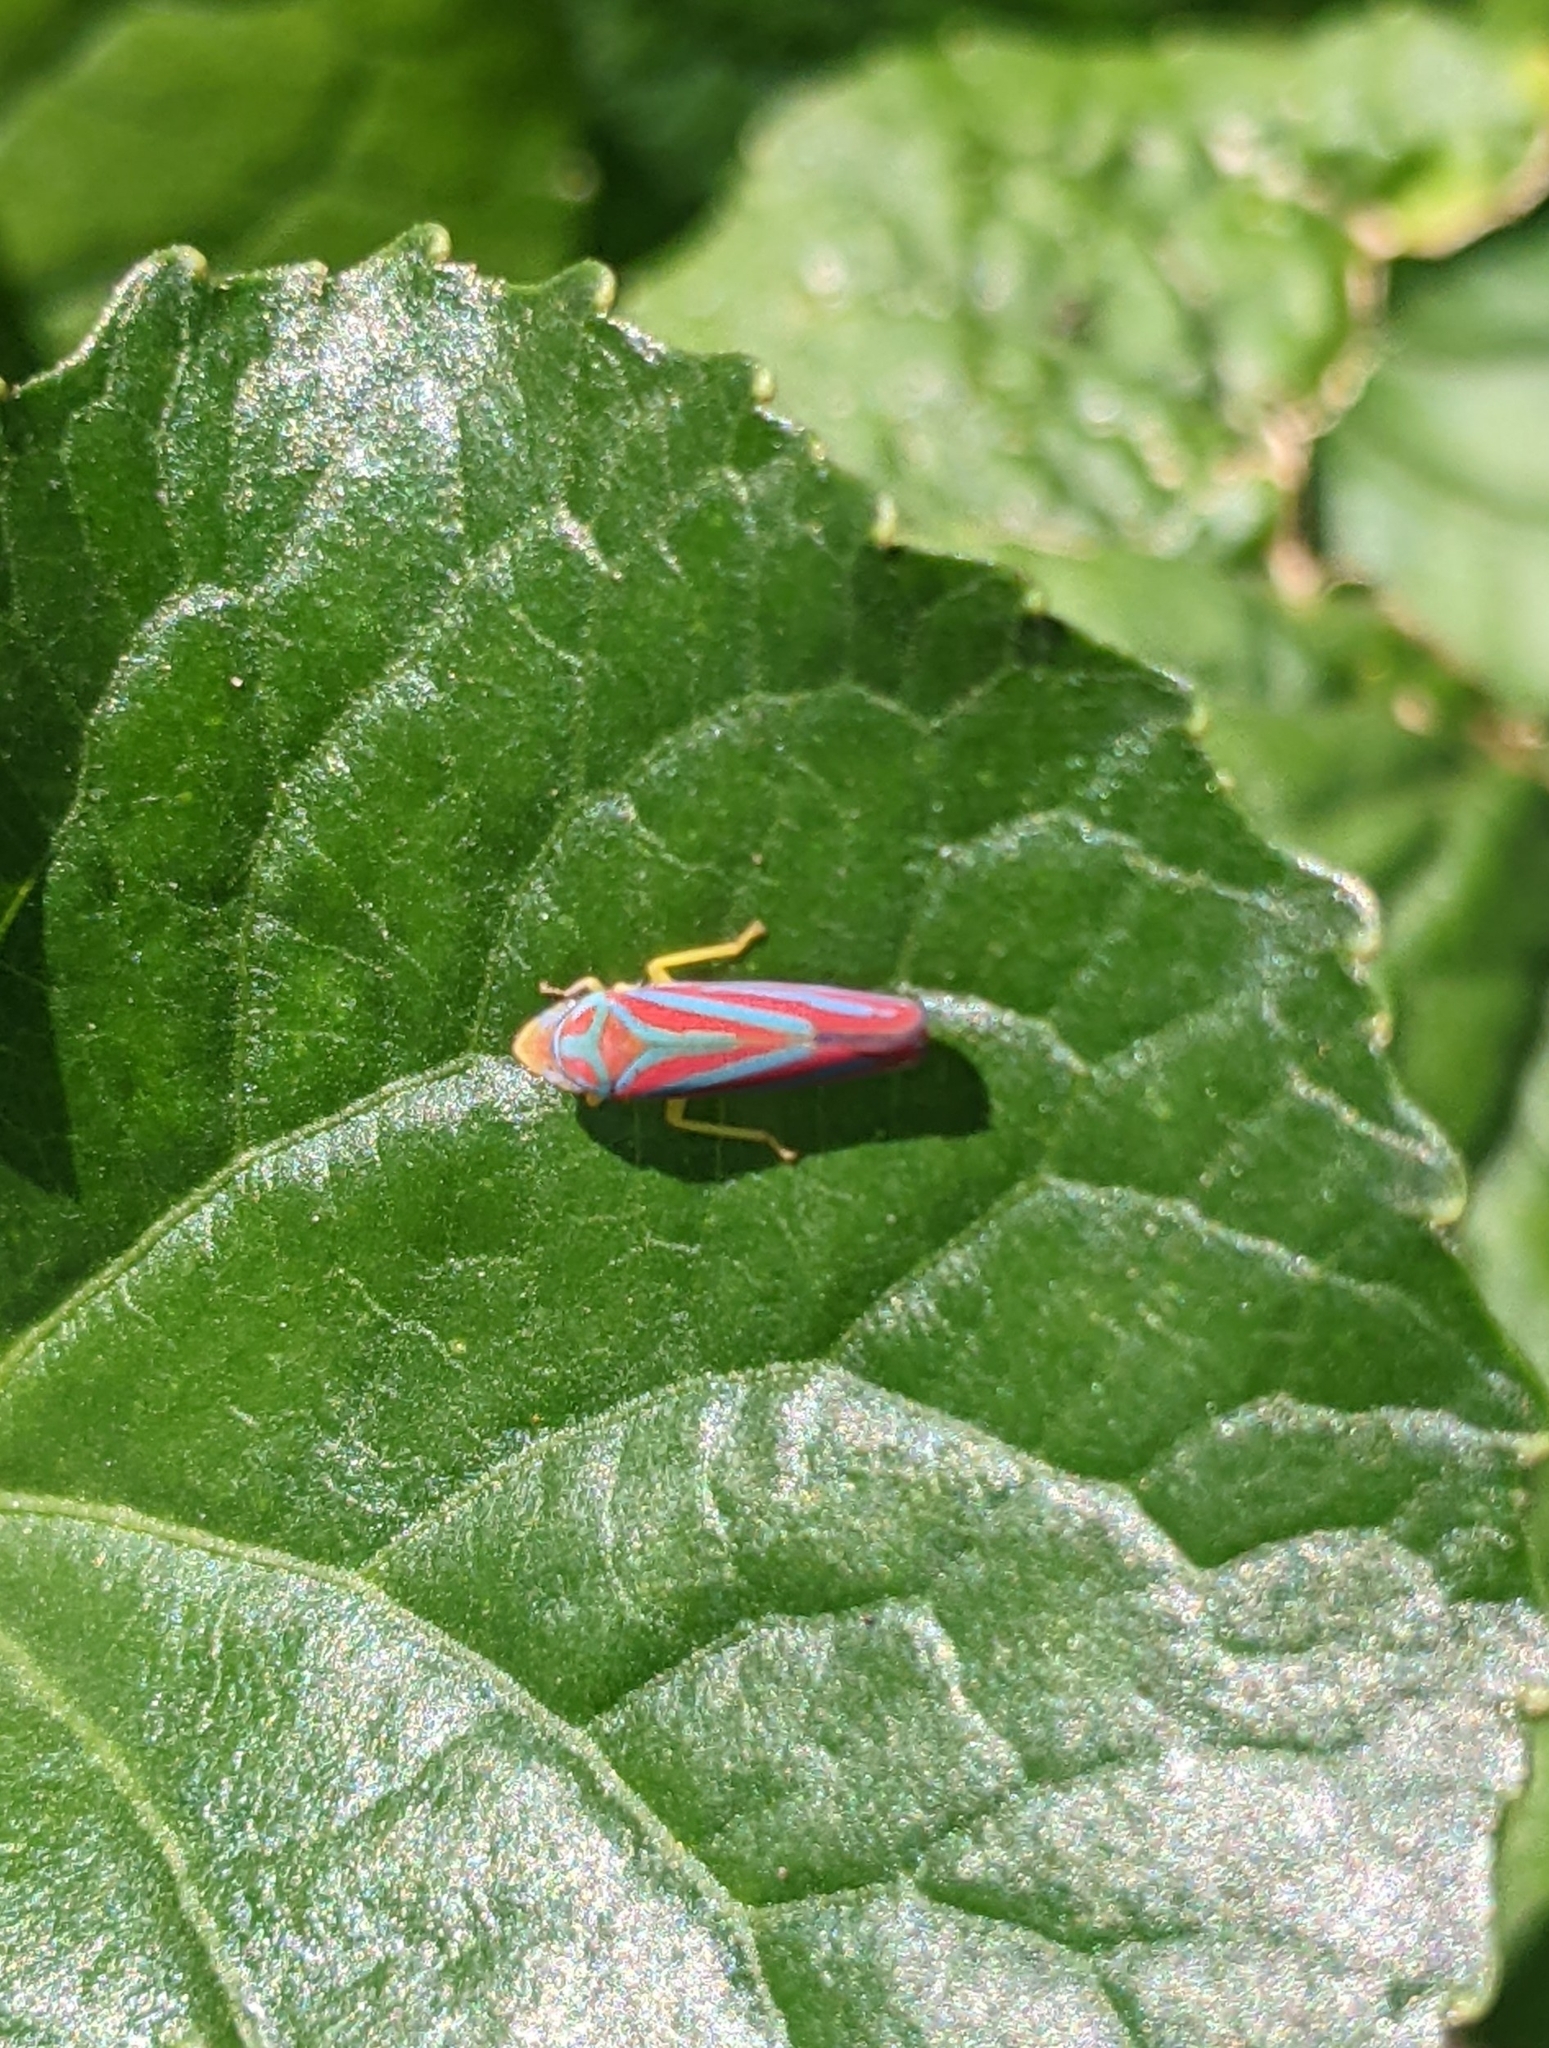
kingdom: Animalia
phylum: Arthropoda
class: Insecta
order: Hemiptera
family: Cicadellidae
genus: Graphocephala
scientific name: Graphocephala coccinea
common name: Candy-striped leafhopper
